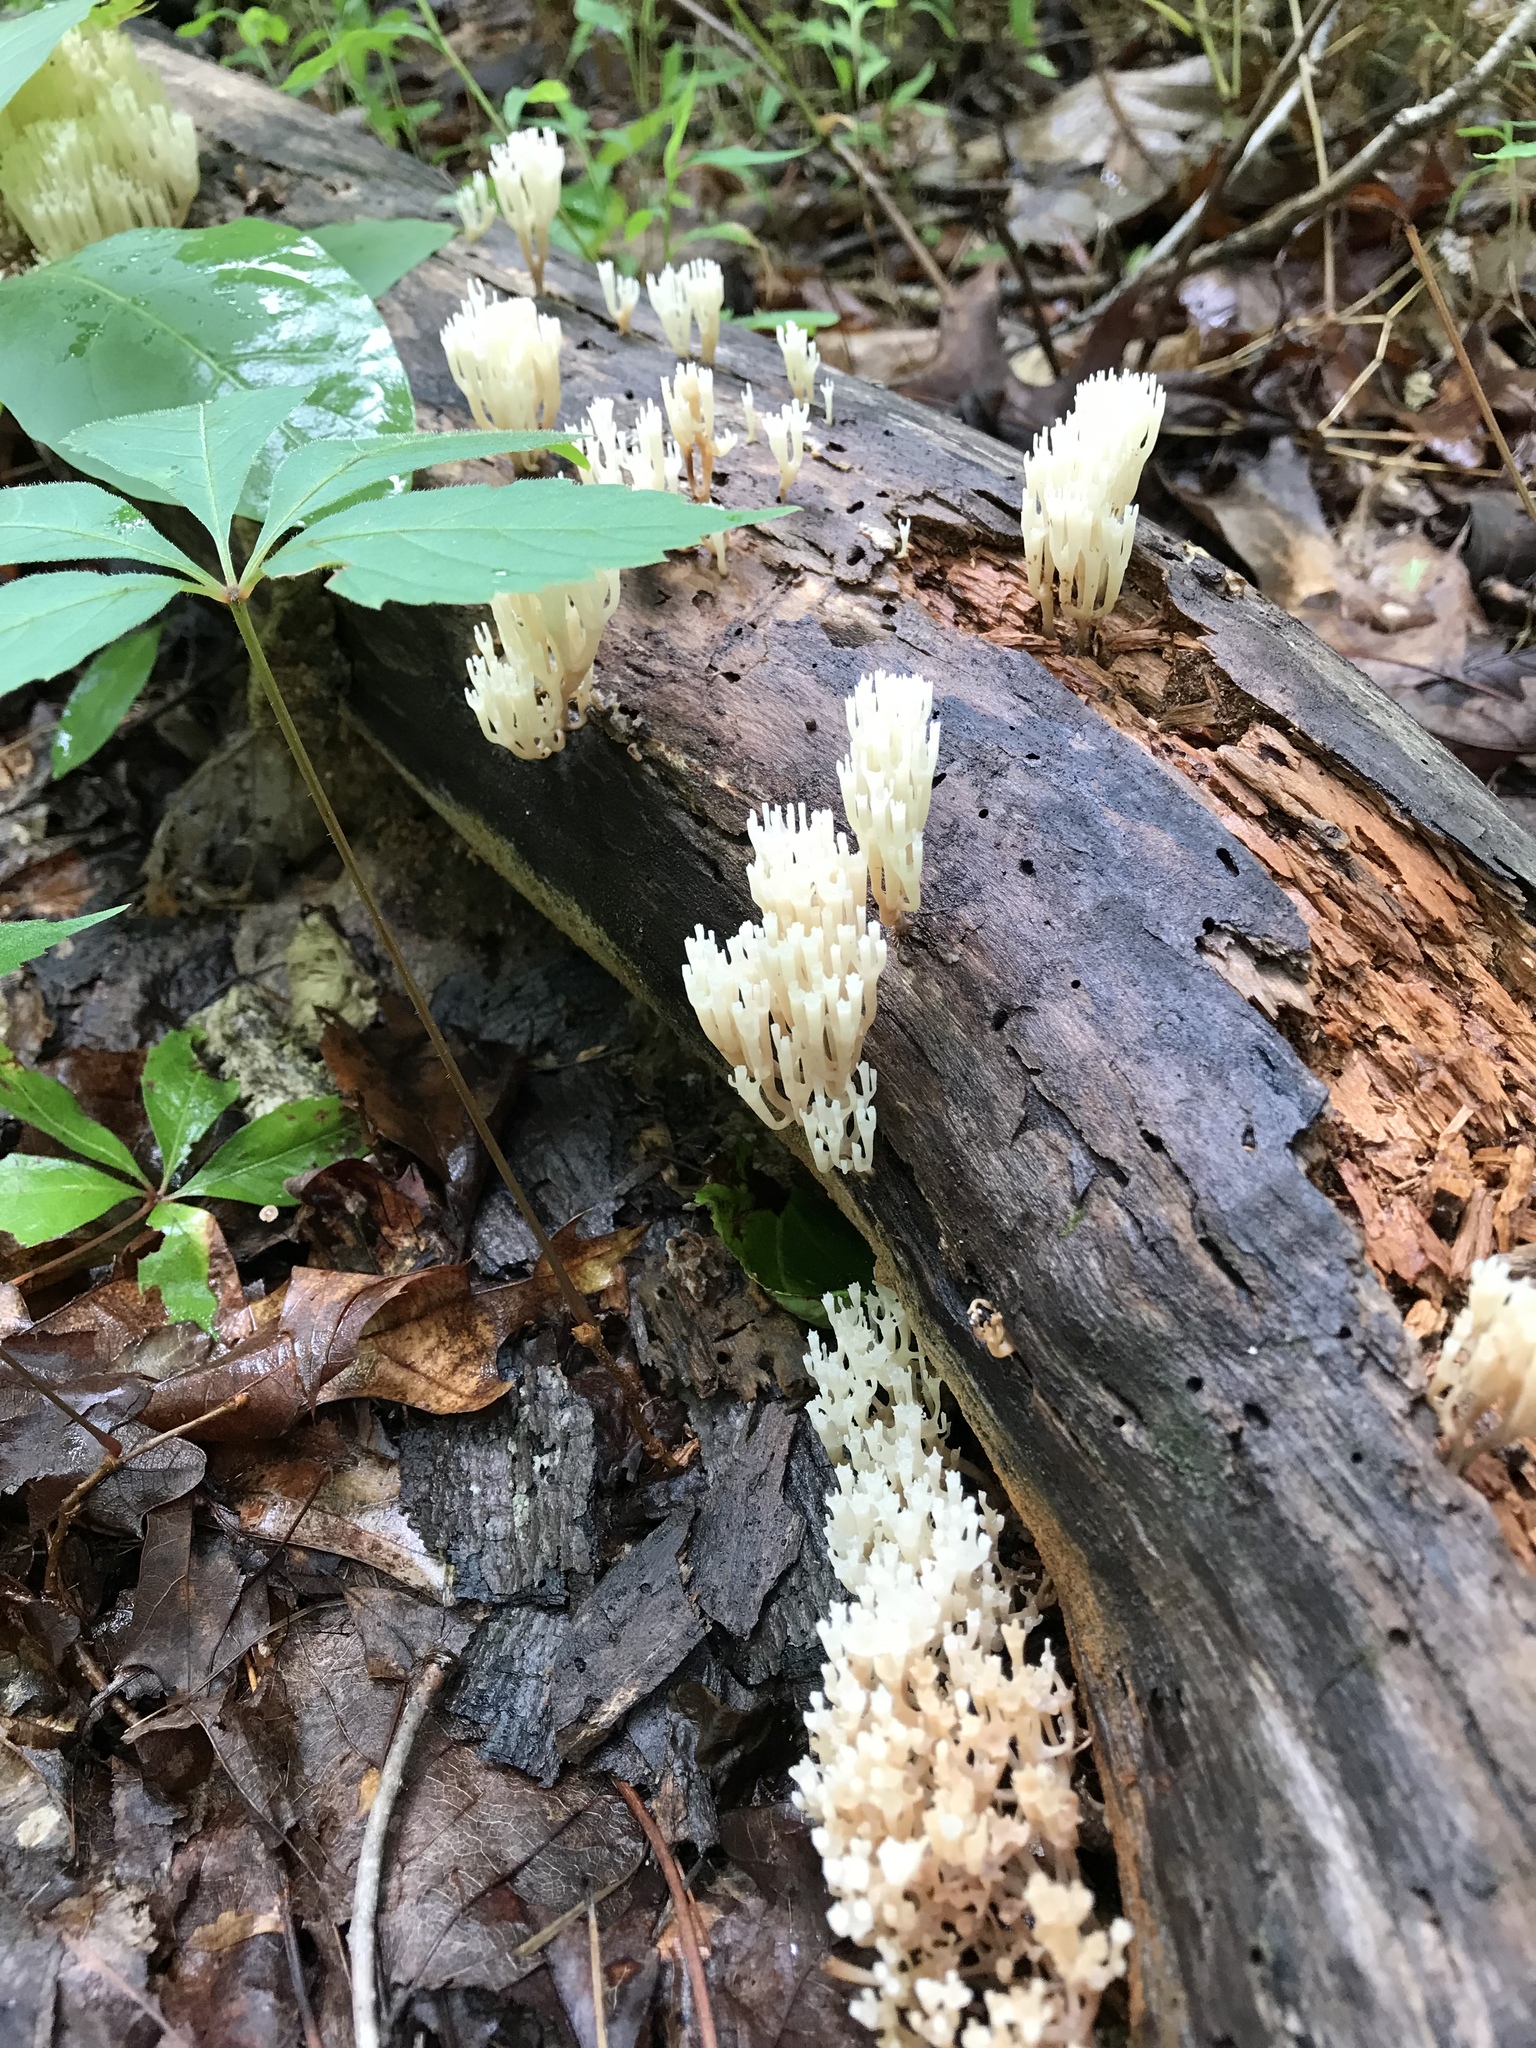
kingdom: Fungi
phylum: Basidiomycota
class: Agaricomycetes
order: Russulales
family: Auriscalpiaceae
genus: Artomyces
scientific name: Artomyces pyxidatus
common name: Crown-tipped coral fungus
